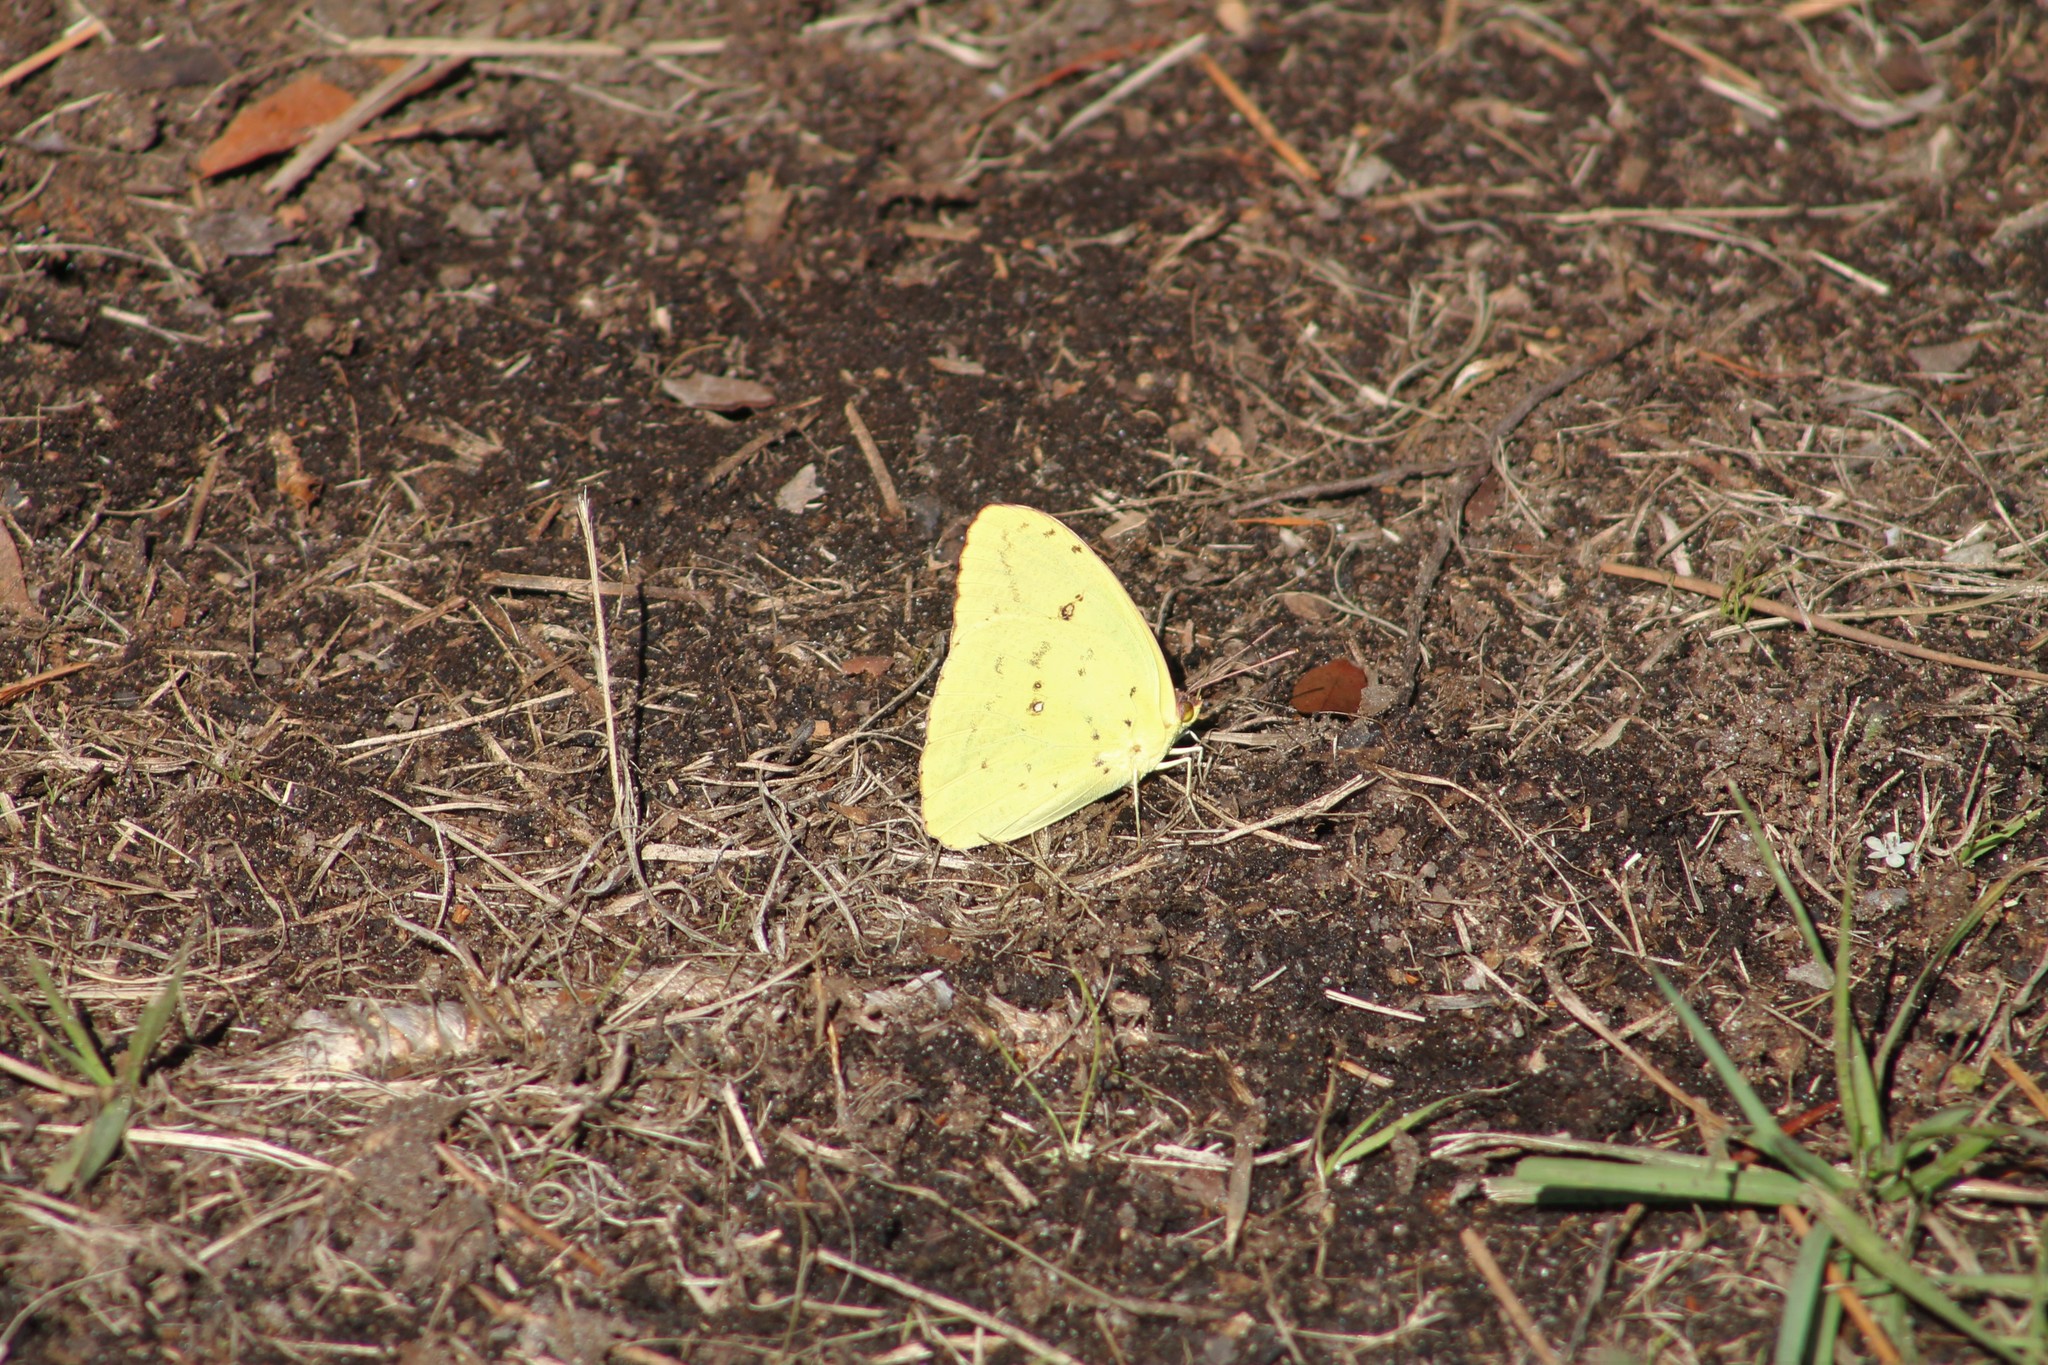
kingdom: Animalia
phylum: Arthropoda
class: Insecta
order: Lepidoptera
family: Pieridae
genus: Phoebis
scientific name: Phoebis sennae
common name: Cloudless sulphur
